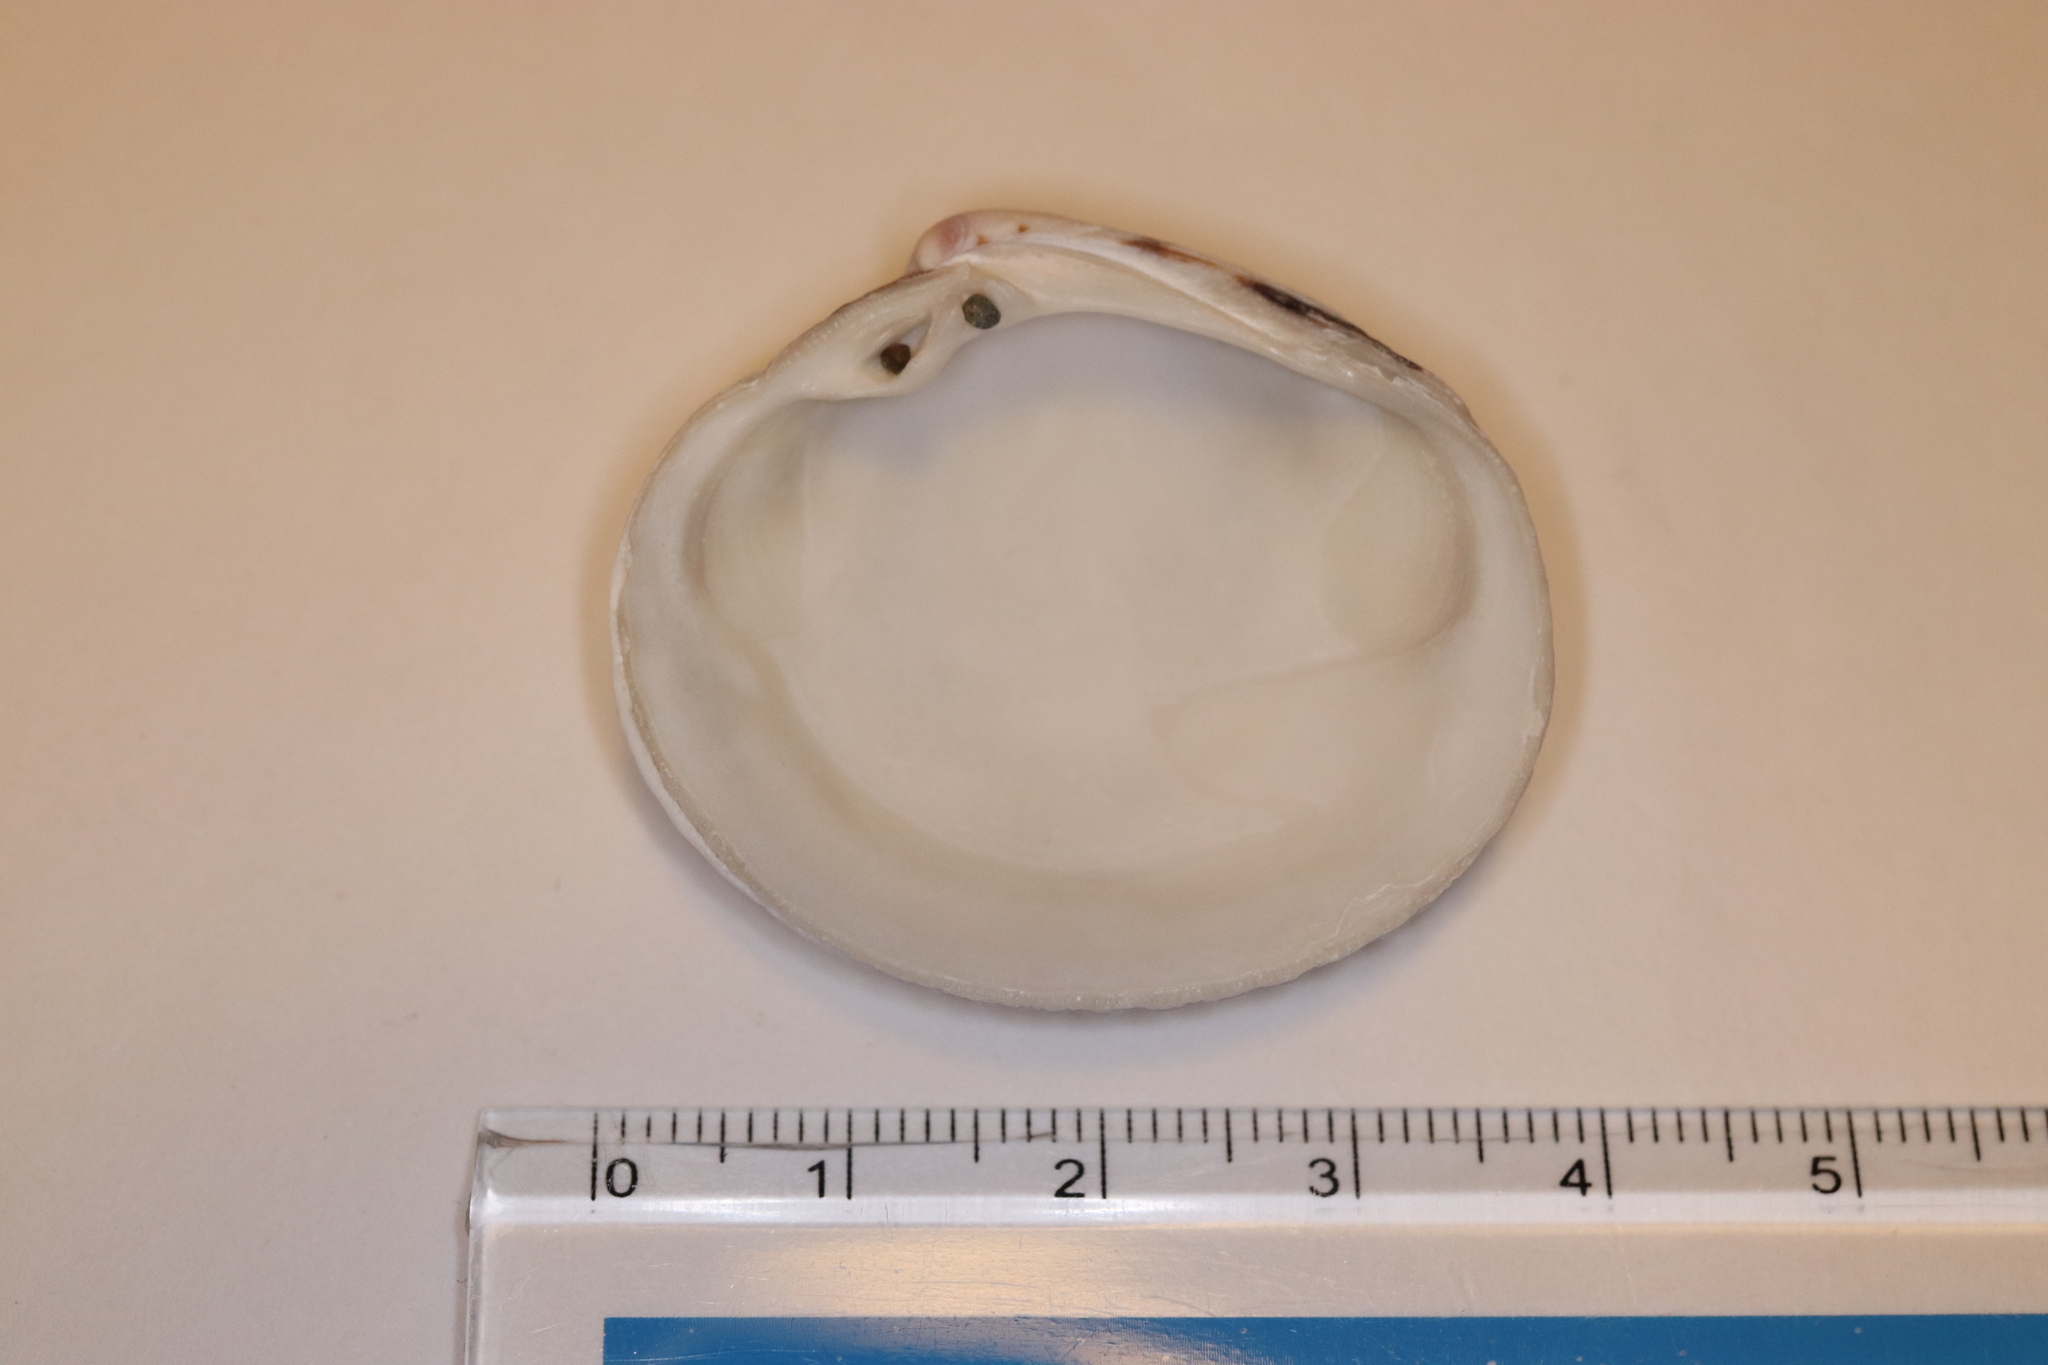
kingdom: Animalia
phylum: Mollusca
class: Bivalvia
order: Venerida
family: Veneridae
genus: Leukoma
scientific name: Leukoma jedoensis
